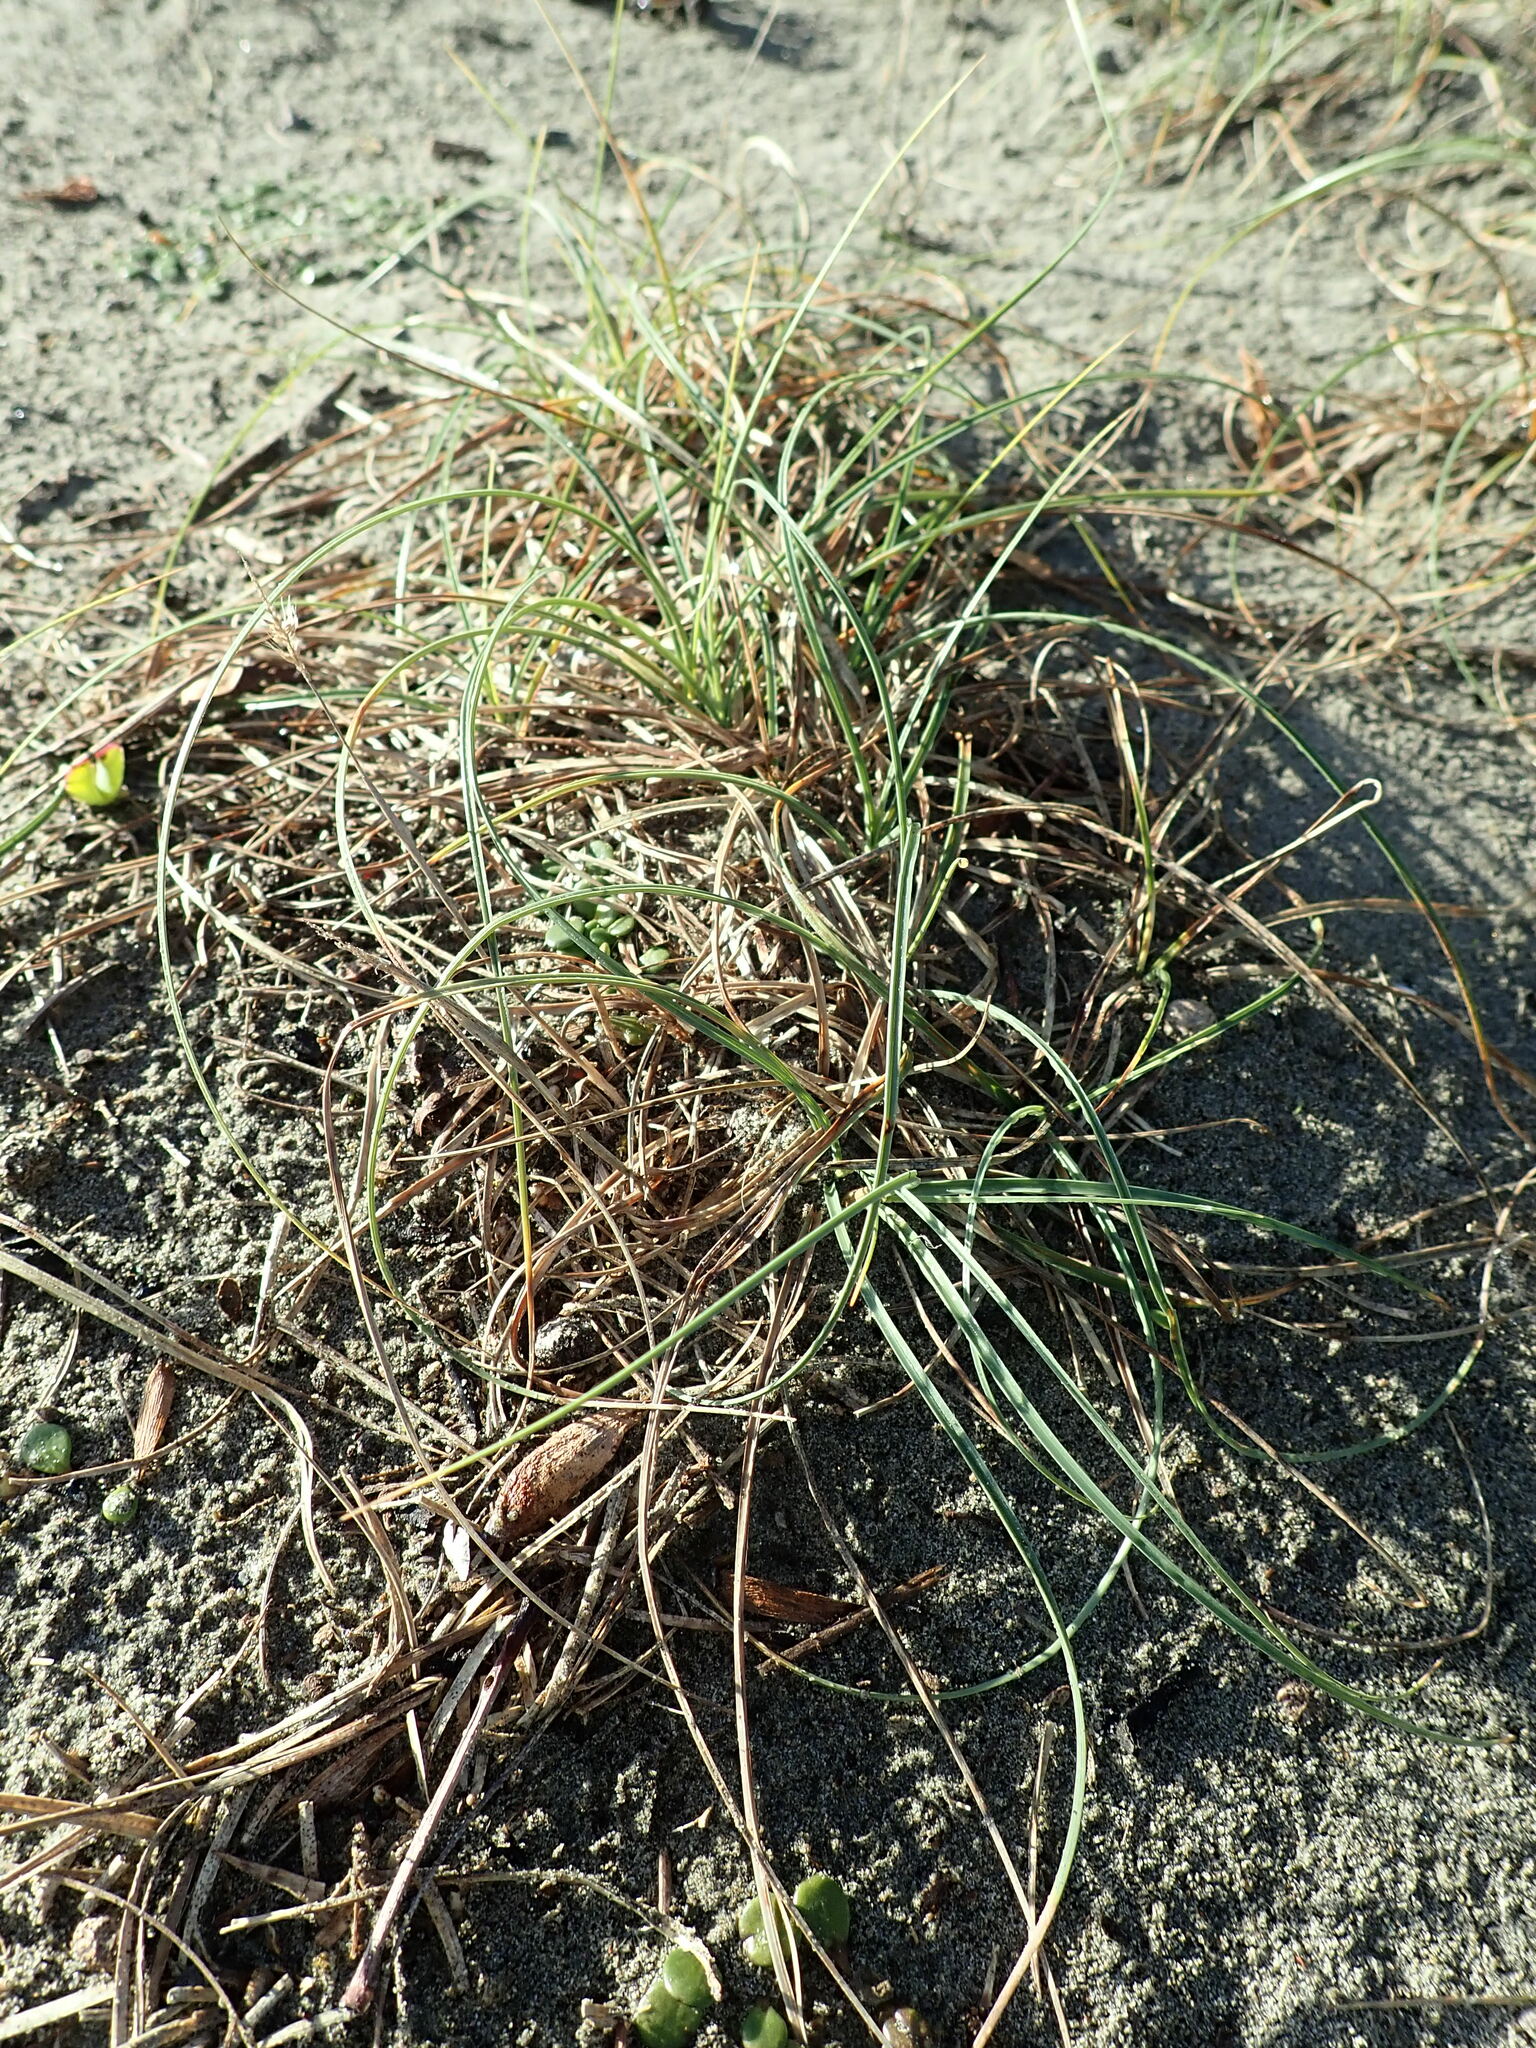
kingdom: Plantae
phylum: Tracheophyta
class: Liliopsida
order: Poales
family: Cyperaceae
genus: Carex
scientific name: Carex pumila
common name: Dwarf sedge
